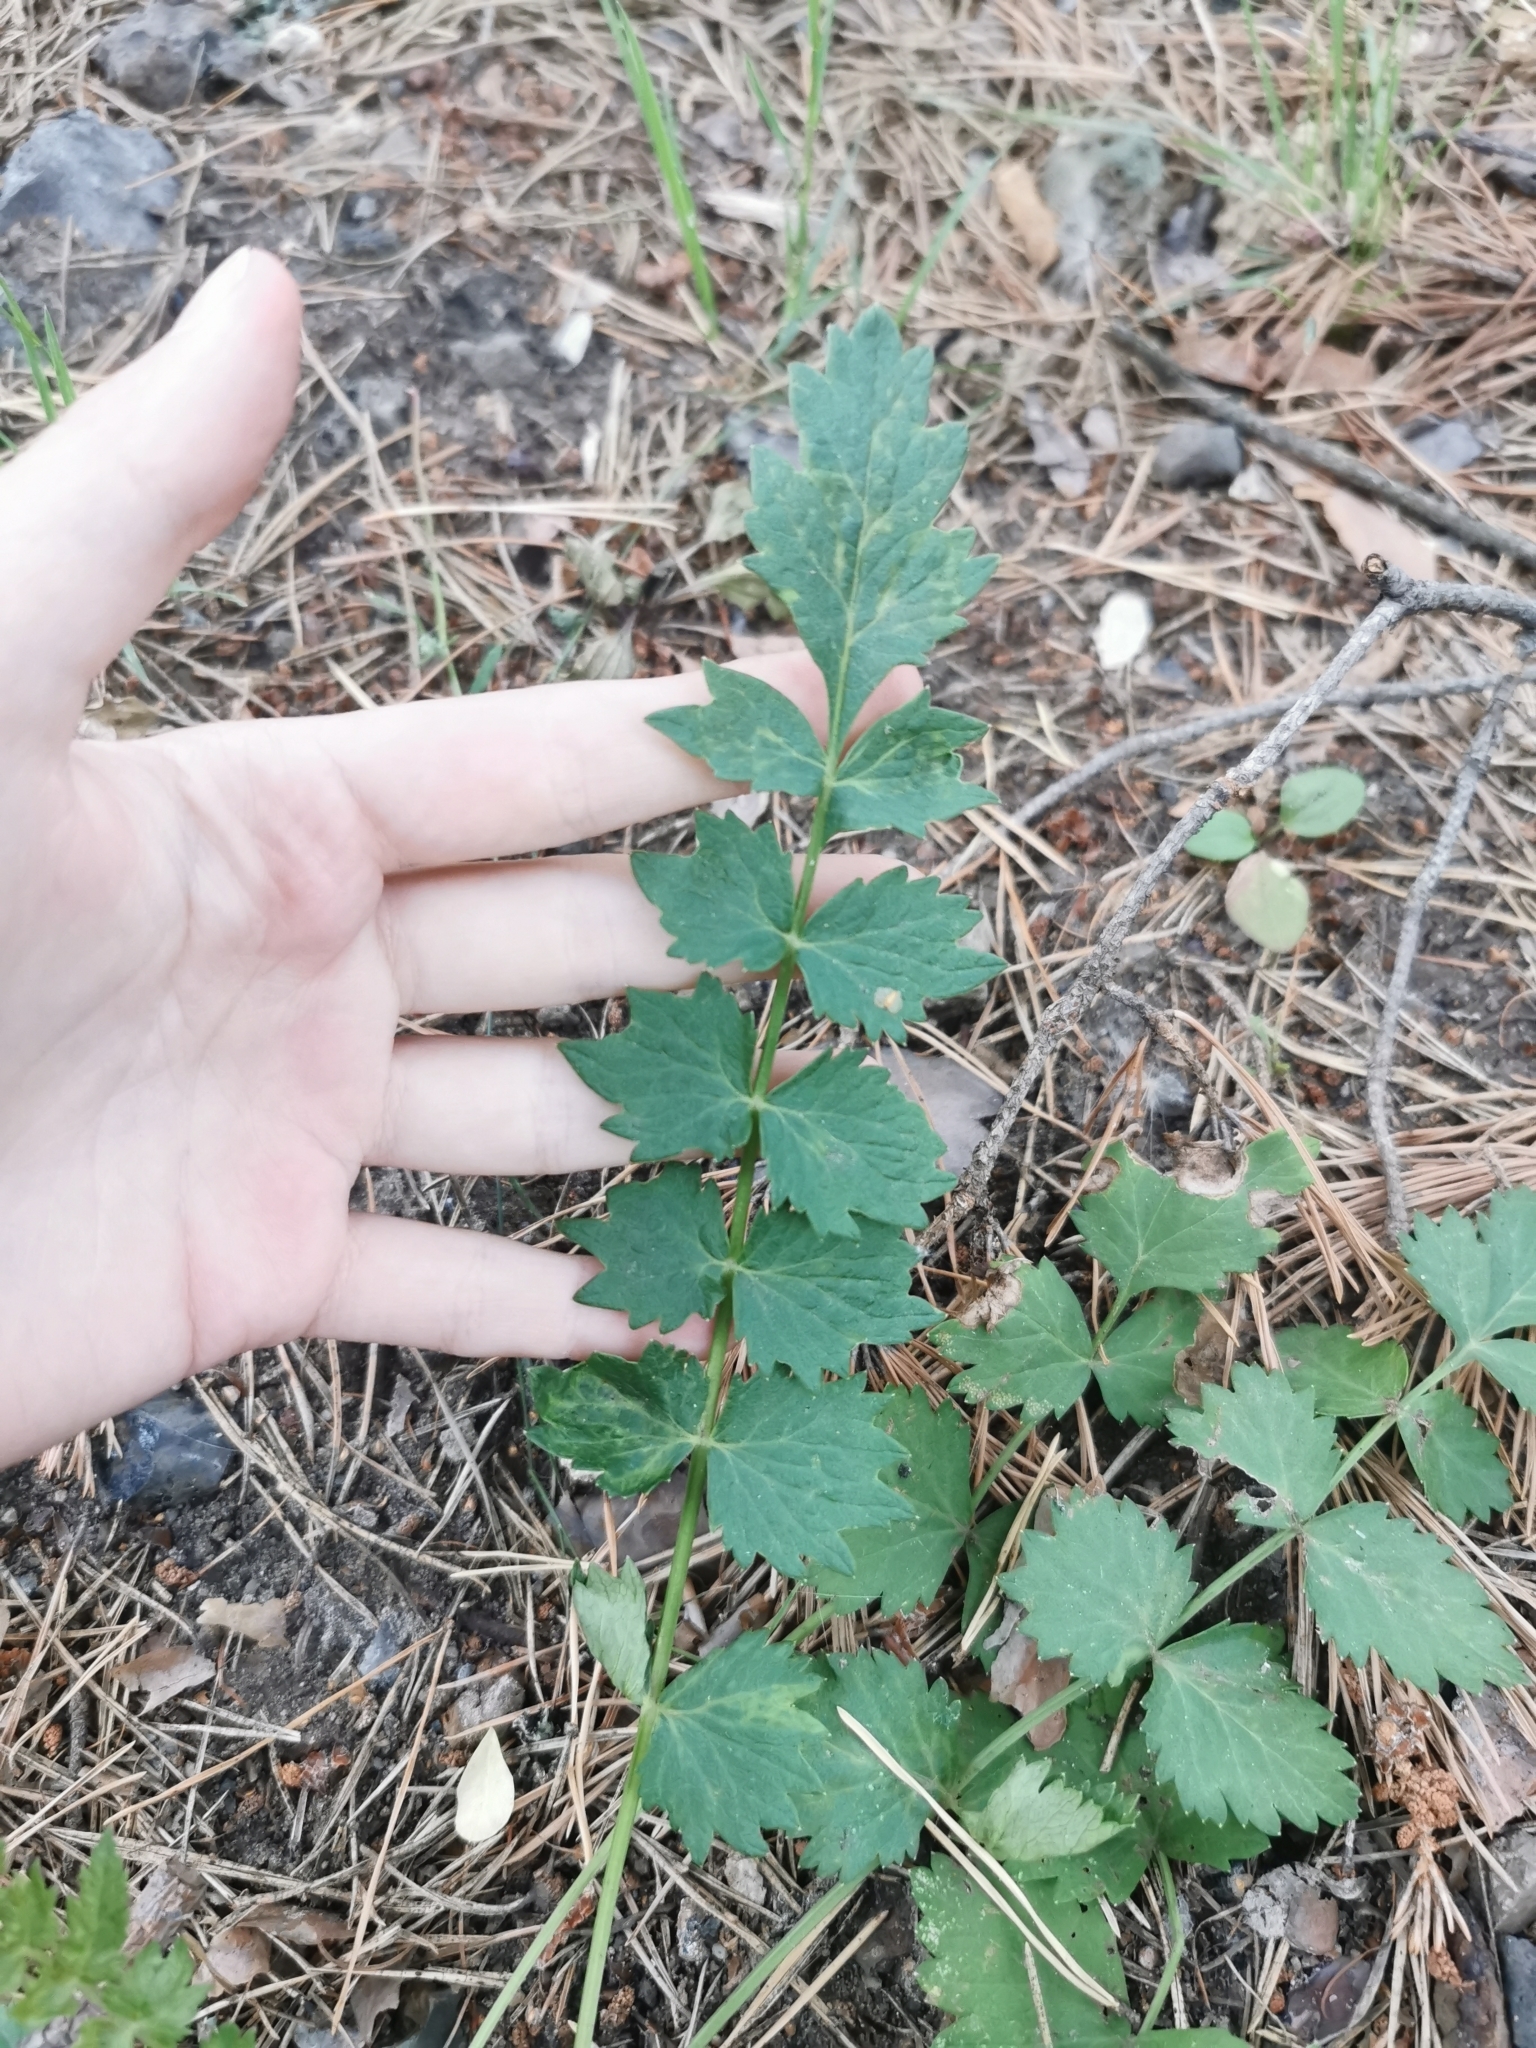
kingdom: Plantae
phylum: Tracheophyta
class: Magnoliopsida
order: Apiales
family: Apiaceae
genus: Pimpinella
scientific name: Pimpinella saxifraga
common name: Burnet-saxifrage
